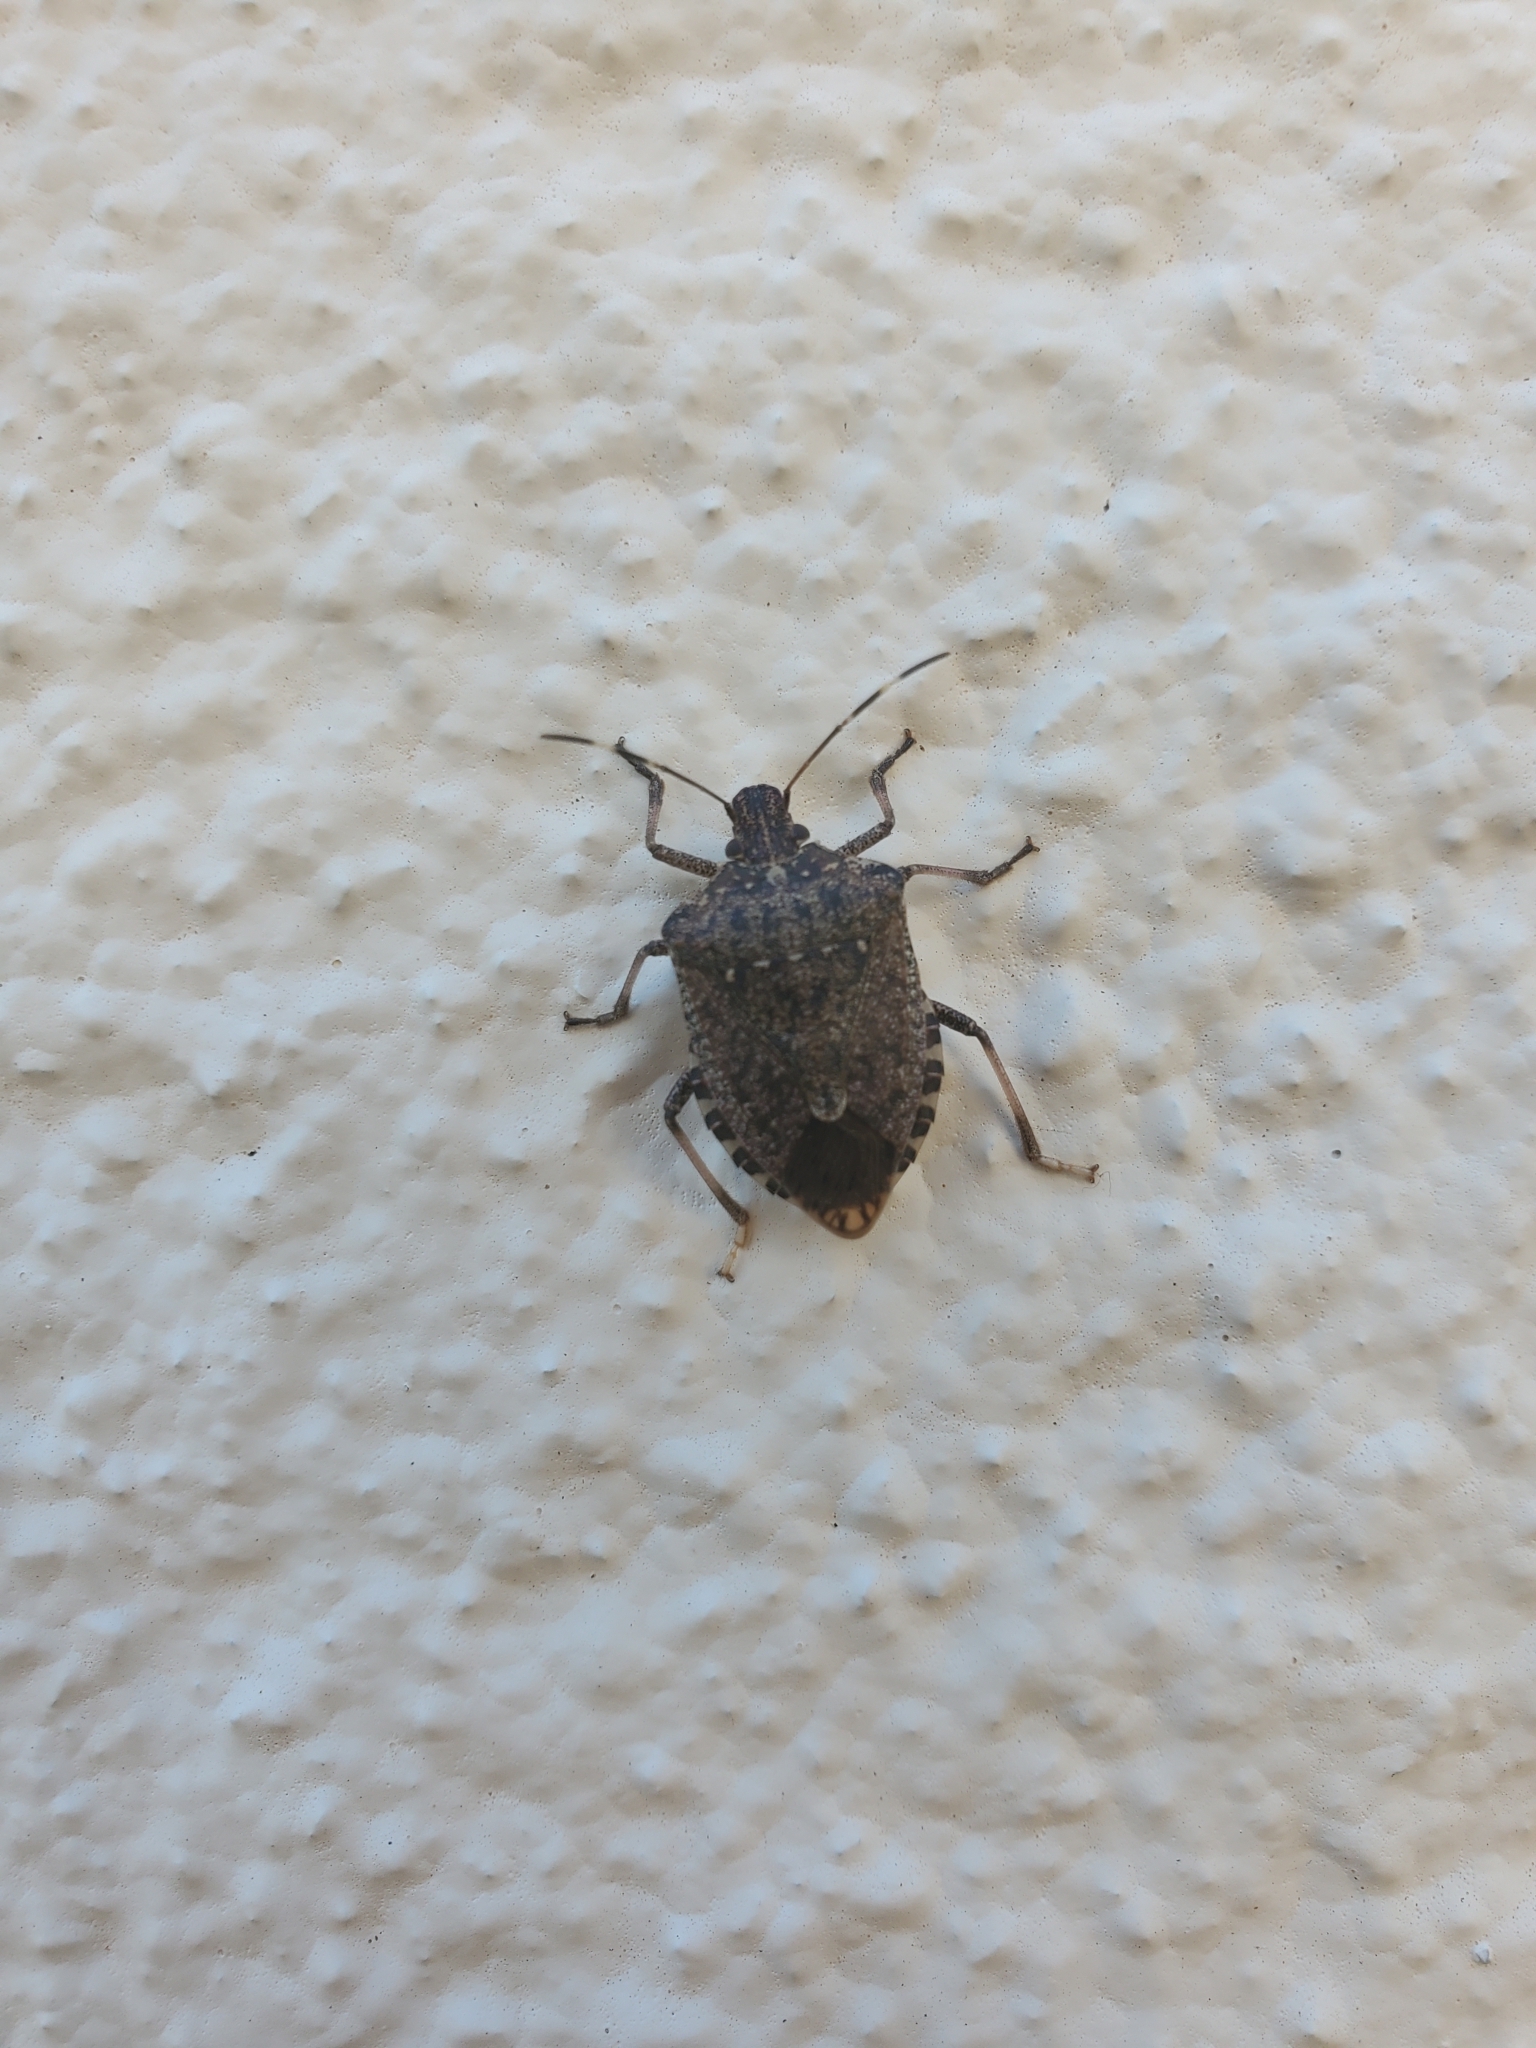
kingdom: Animalia
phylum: Arthropoda
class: Insecta
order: Hemiptera
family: Pentatomidae
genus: Halyomorpha
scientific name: Halyomorpha halys
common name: Brown marmorated stink bug
